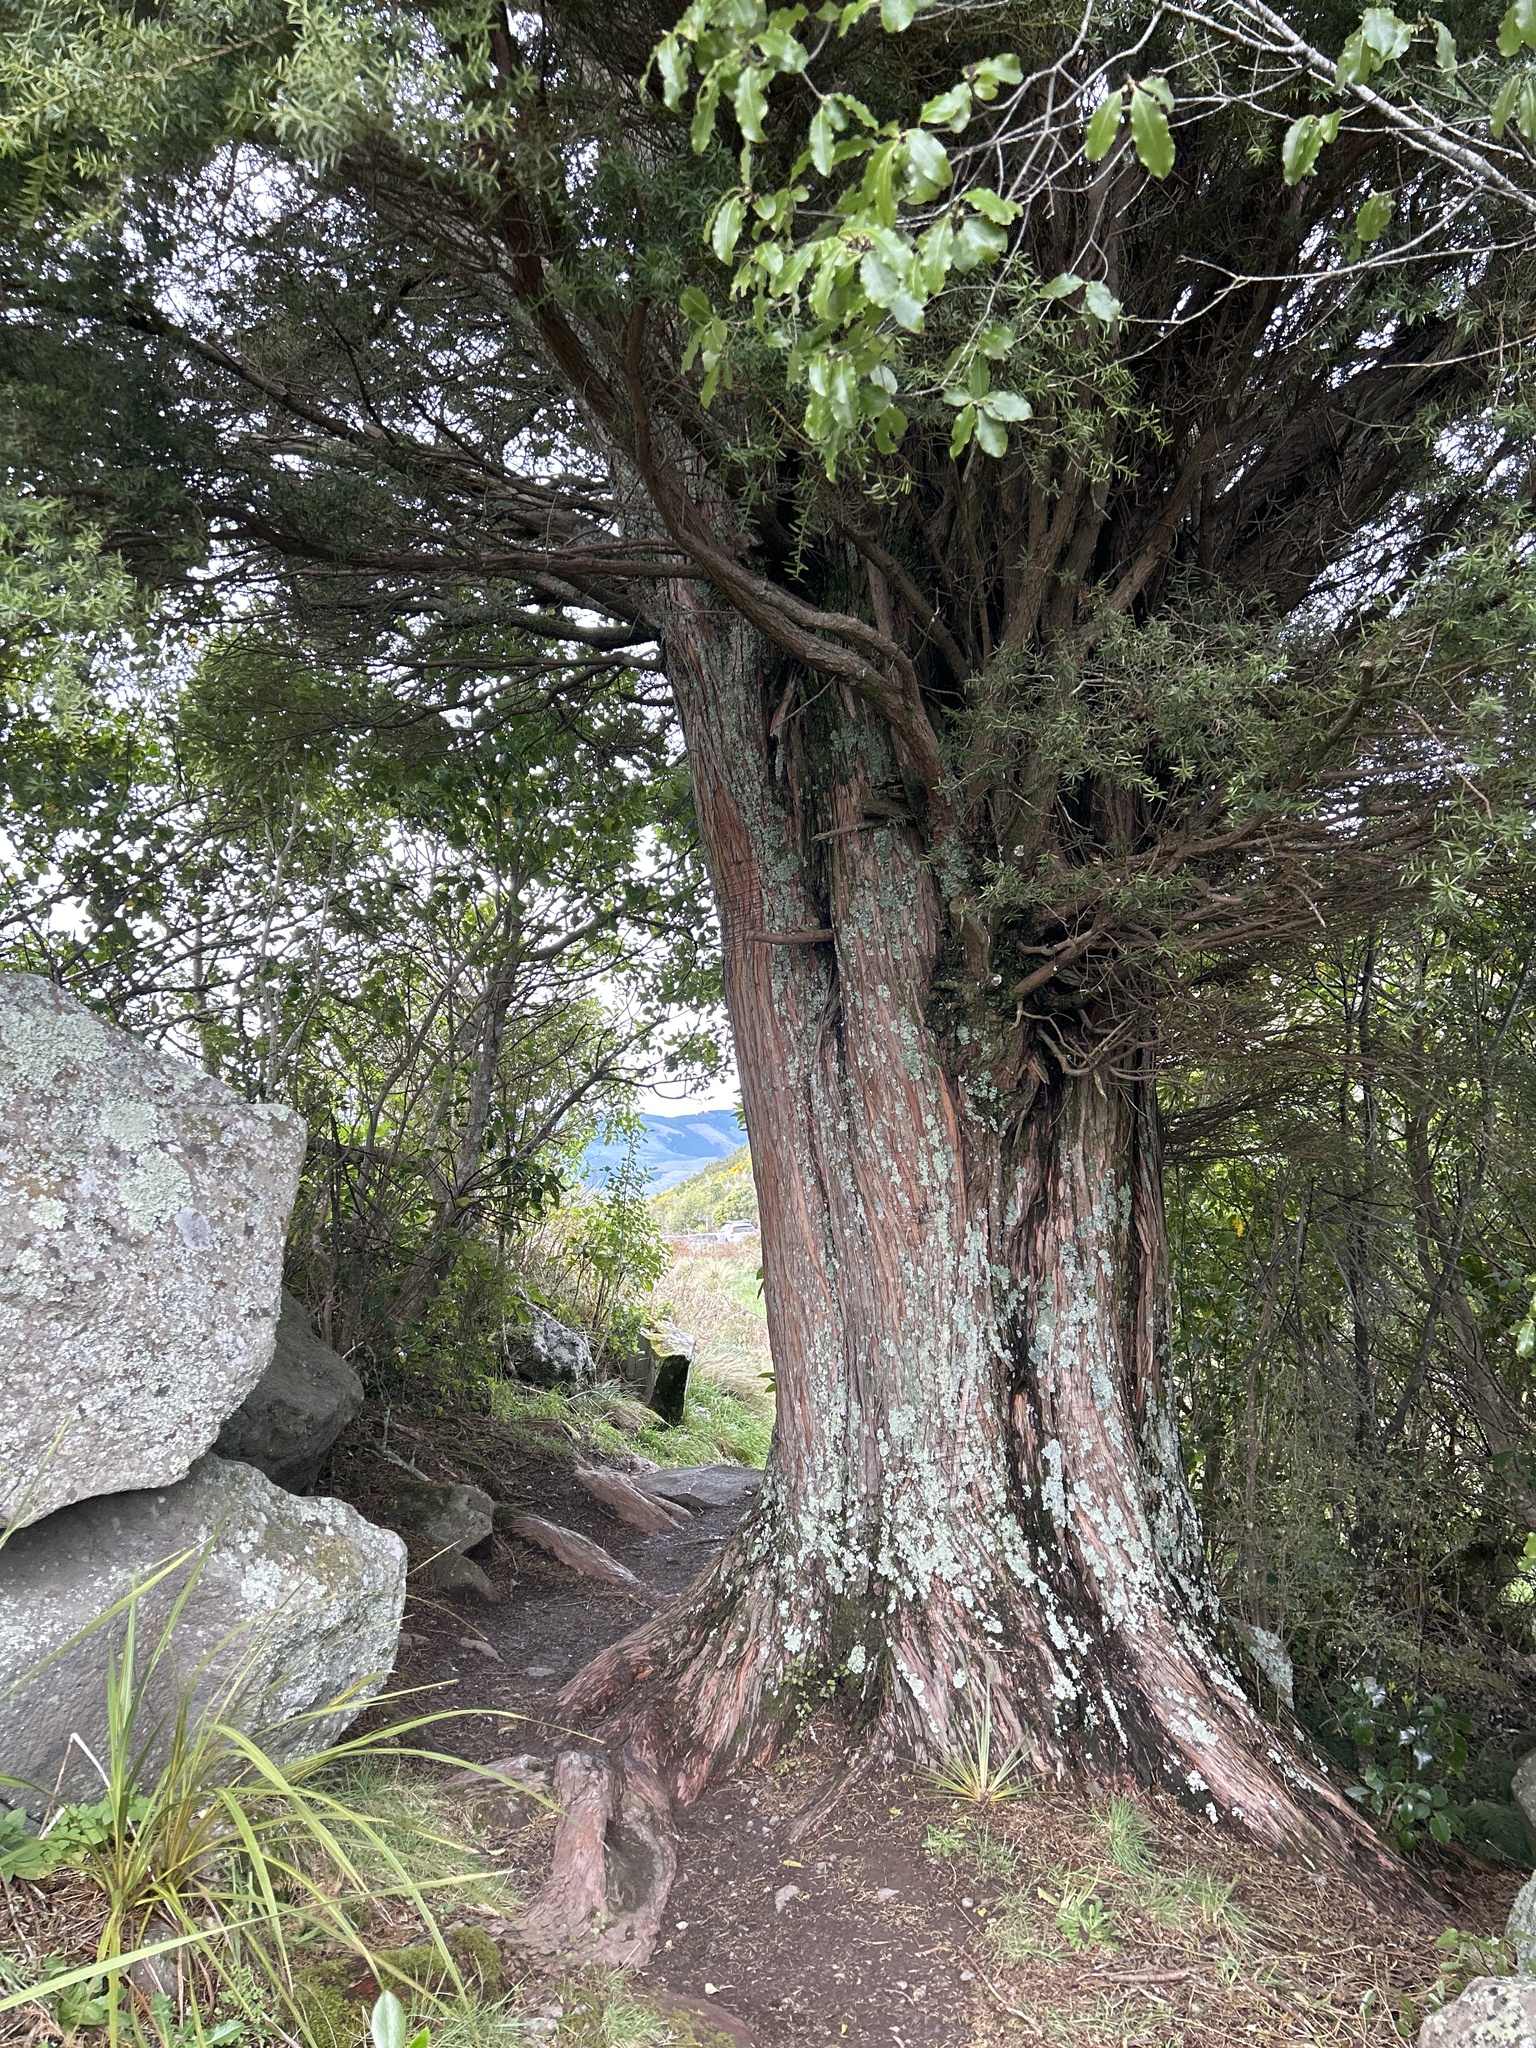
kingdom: Plantae
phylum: Tracheophyta
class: Pinopsida
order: Pinales
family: Podocarpaceae
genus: Podocarpus
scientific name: Podocarpus totara
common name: Totara
